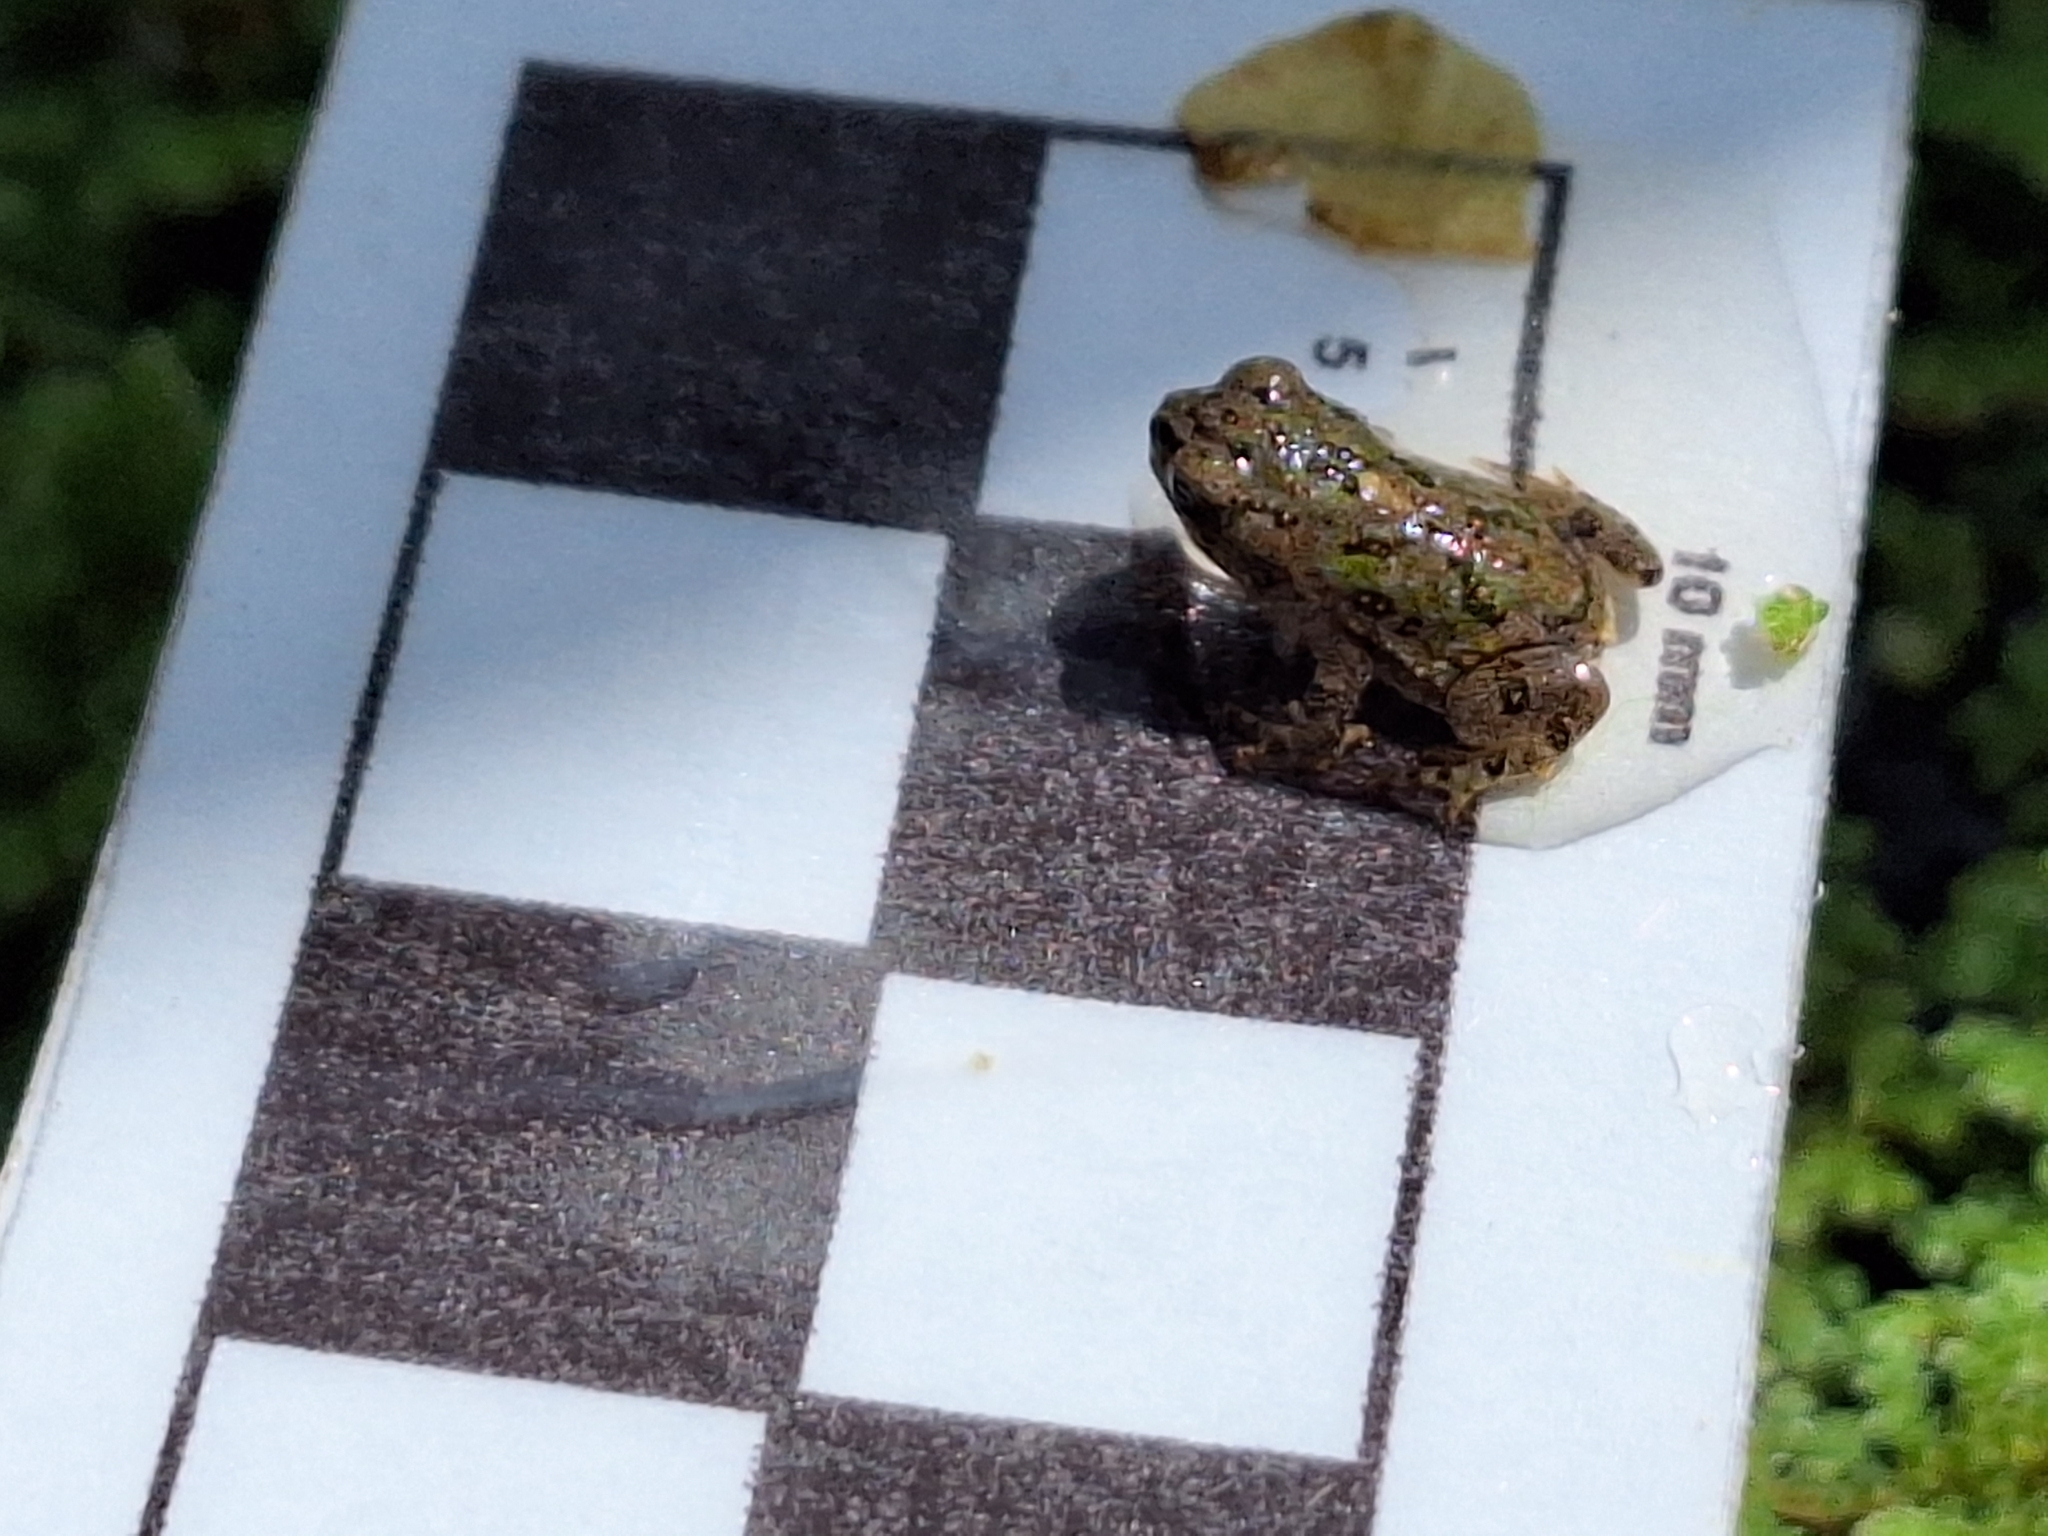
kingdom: Animalia
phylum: Chordata
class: Amphibia
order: Anura
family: Bufonidae
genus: Rhinella
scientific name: Rhinella arenarum
